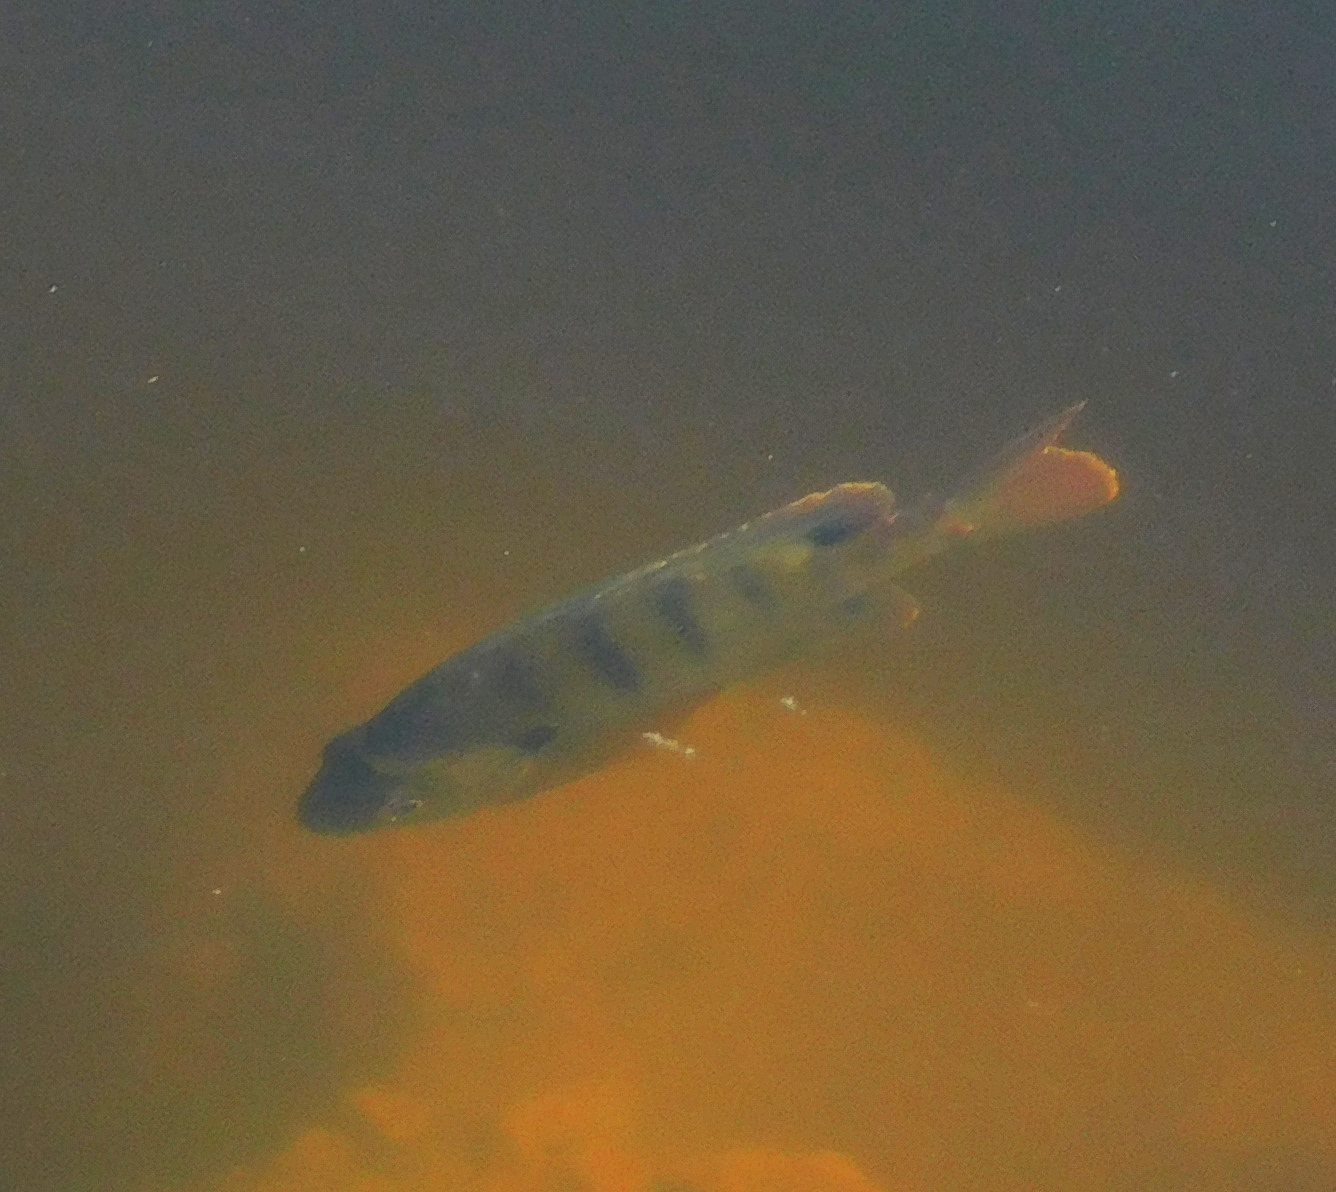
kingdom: Animalia
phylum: Chordata
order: Perciformes
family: Centrarchidae
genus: Lepomis
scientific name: Lepomis macrochirus
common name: Bluegill
